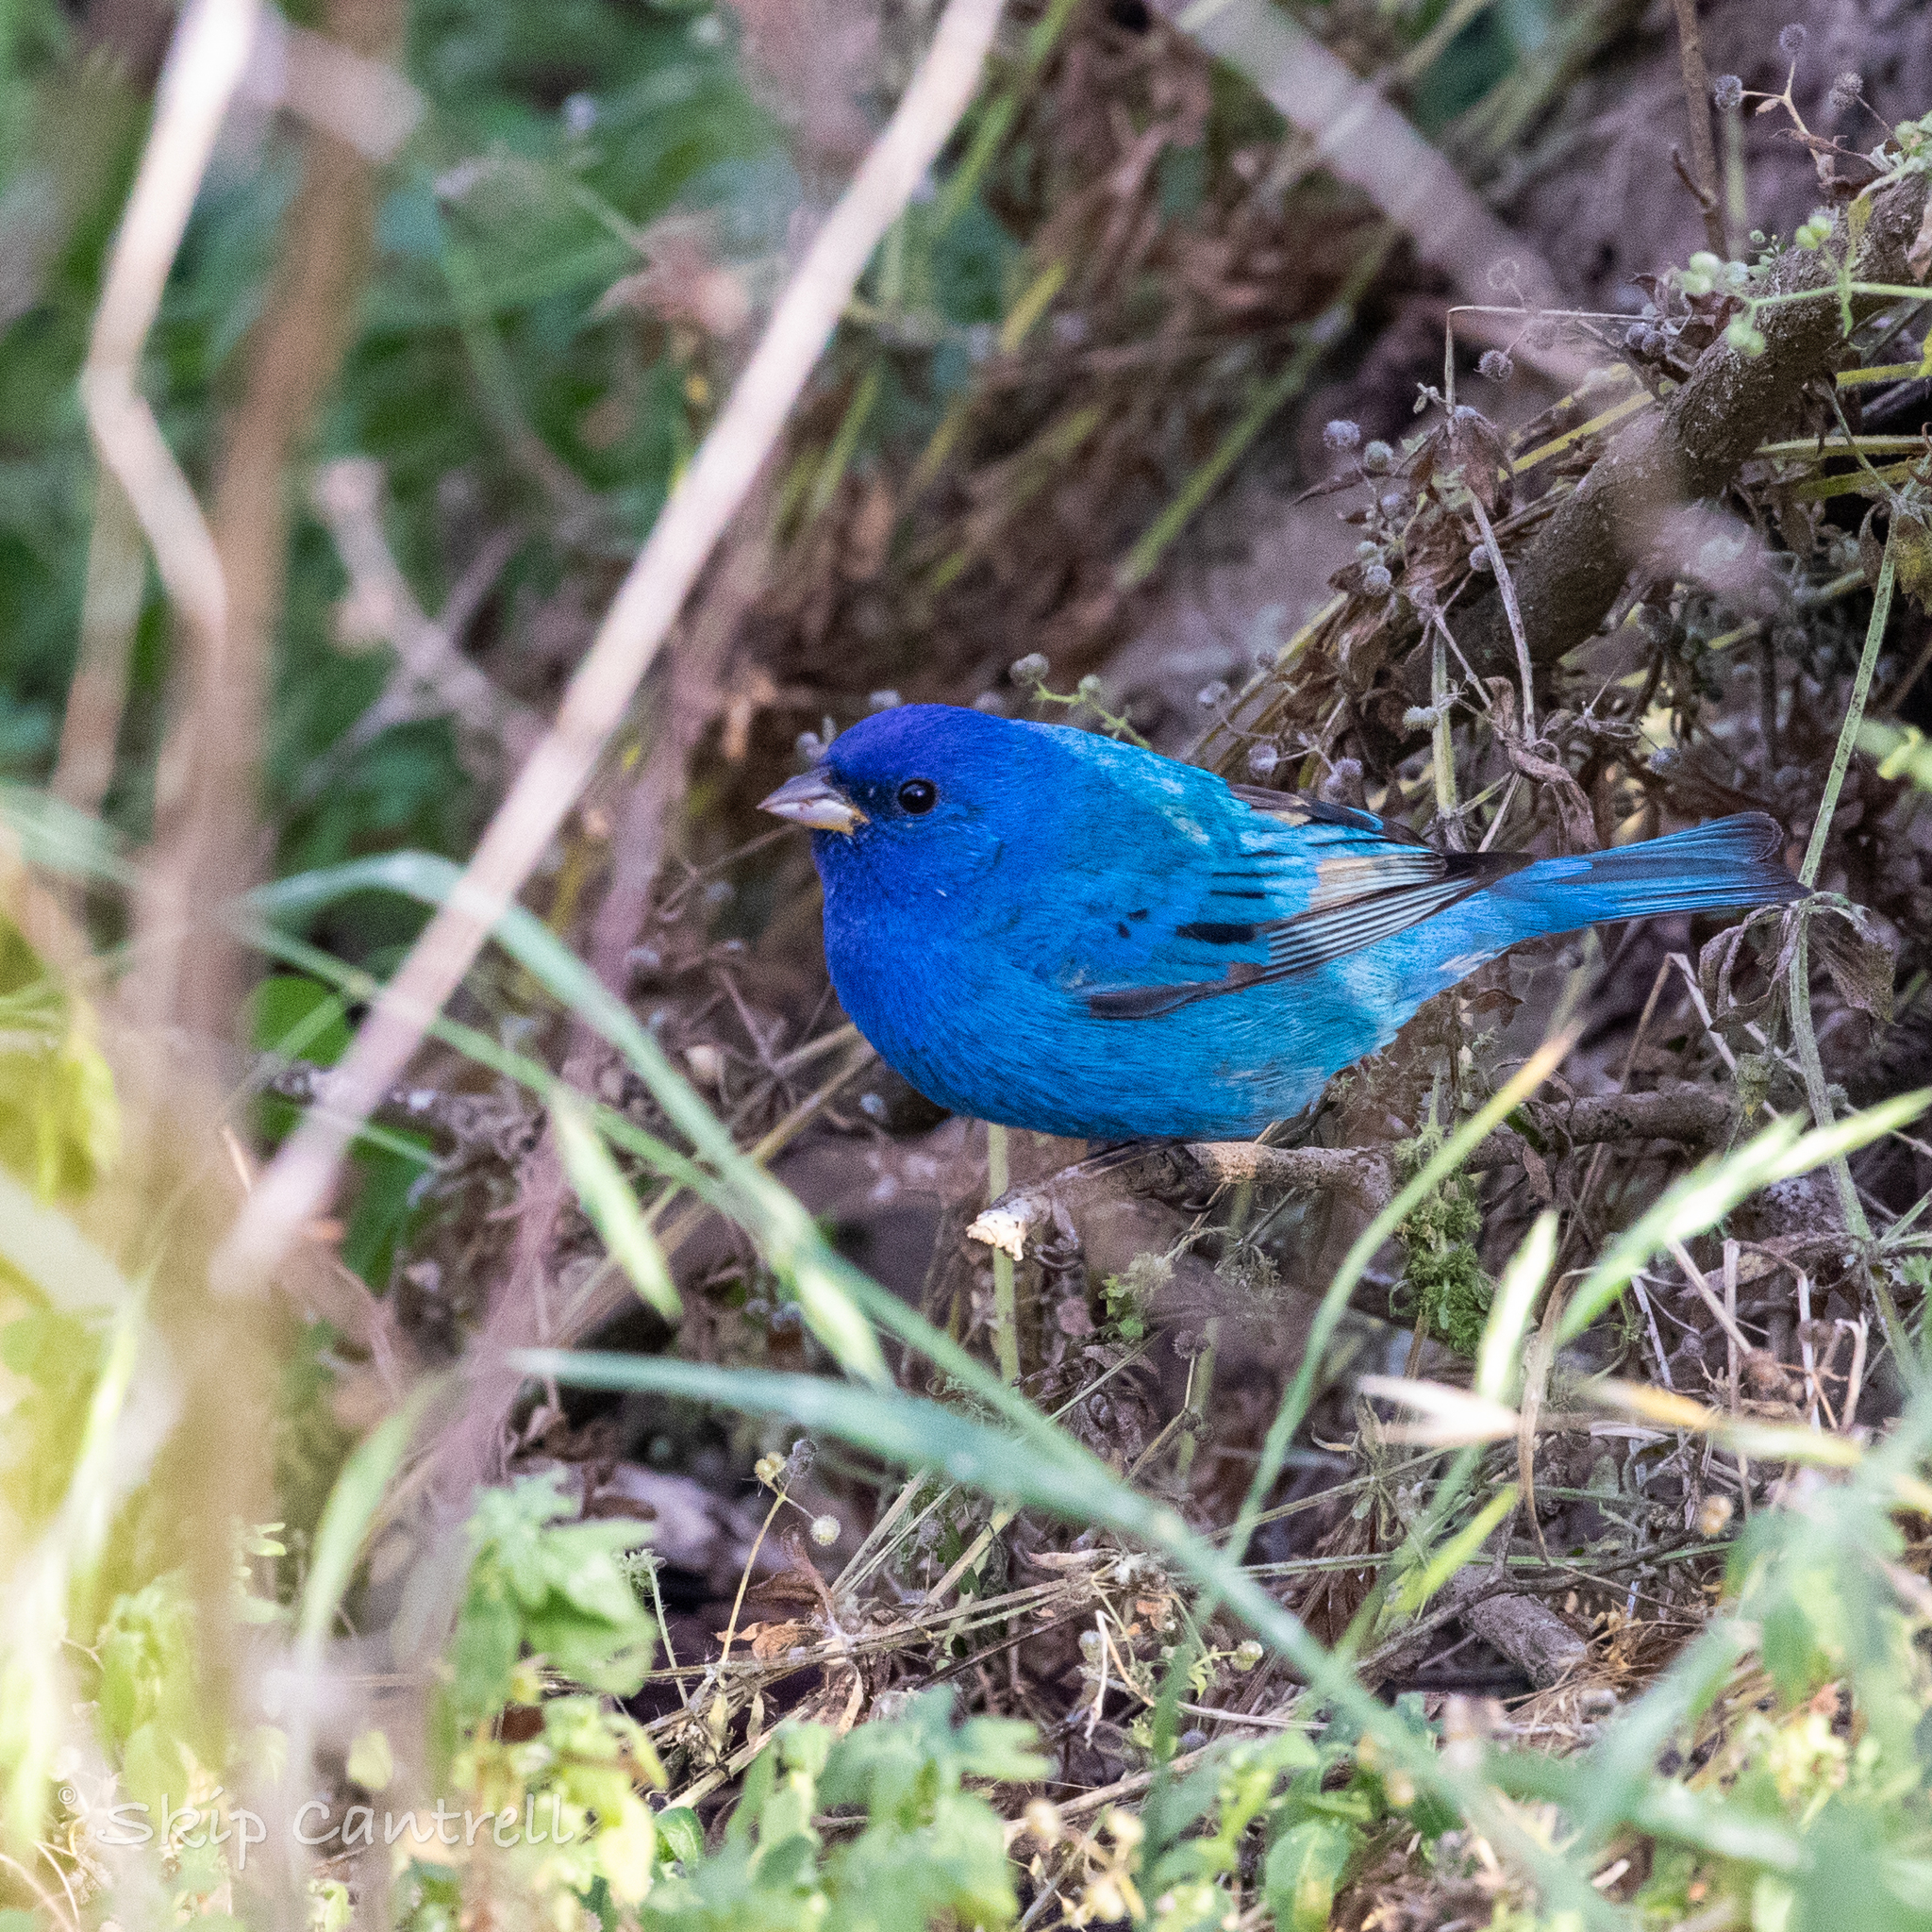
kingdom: Animalia
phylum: Chordata
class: Aves
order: Passeriformes
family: Cardinalidae
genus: Passerina
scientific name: Passerina cyanea
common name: Indigo bunting
